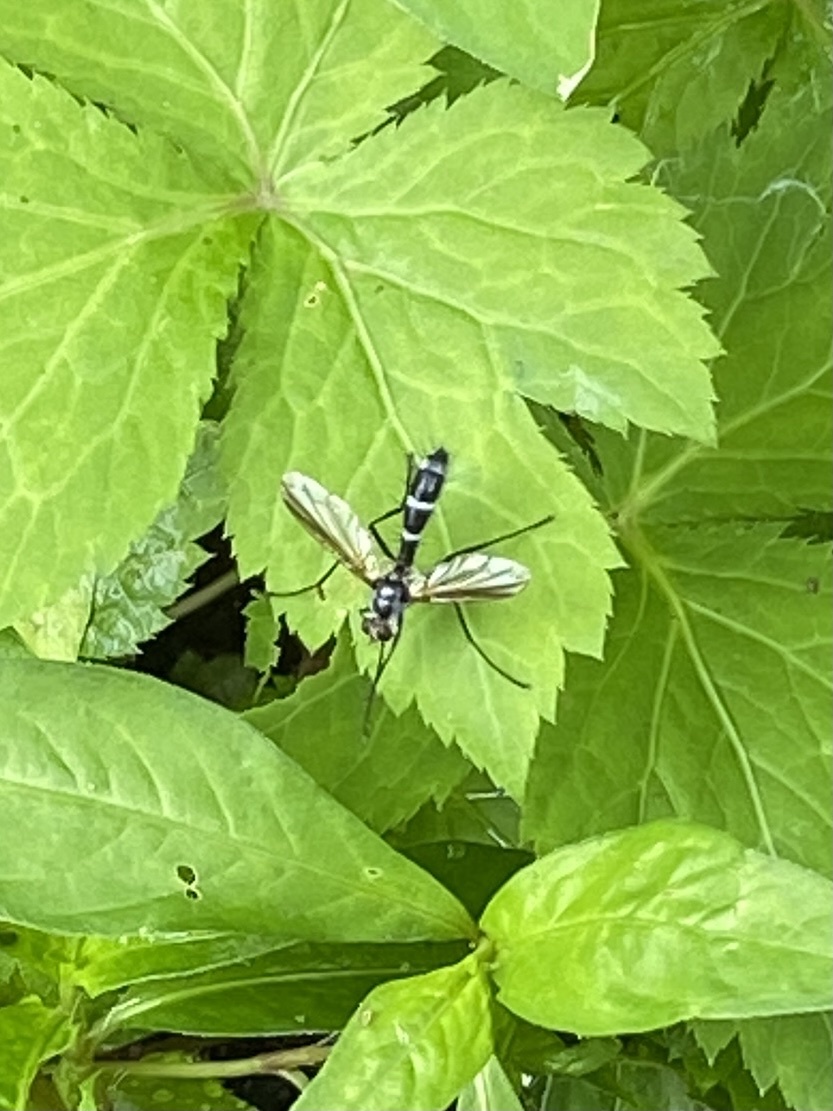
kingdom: Animalia
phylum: Arthropoda
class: Insecta
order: Diptera
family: Tachinidae
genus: Cordyligaster
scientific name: Cordyligaster septentrionalis
